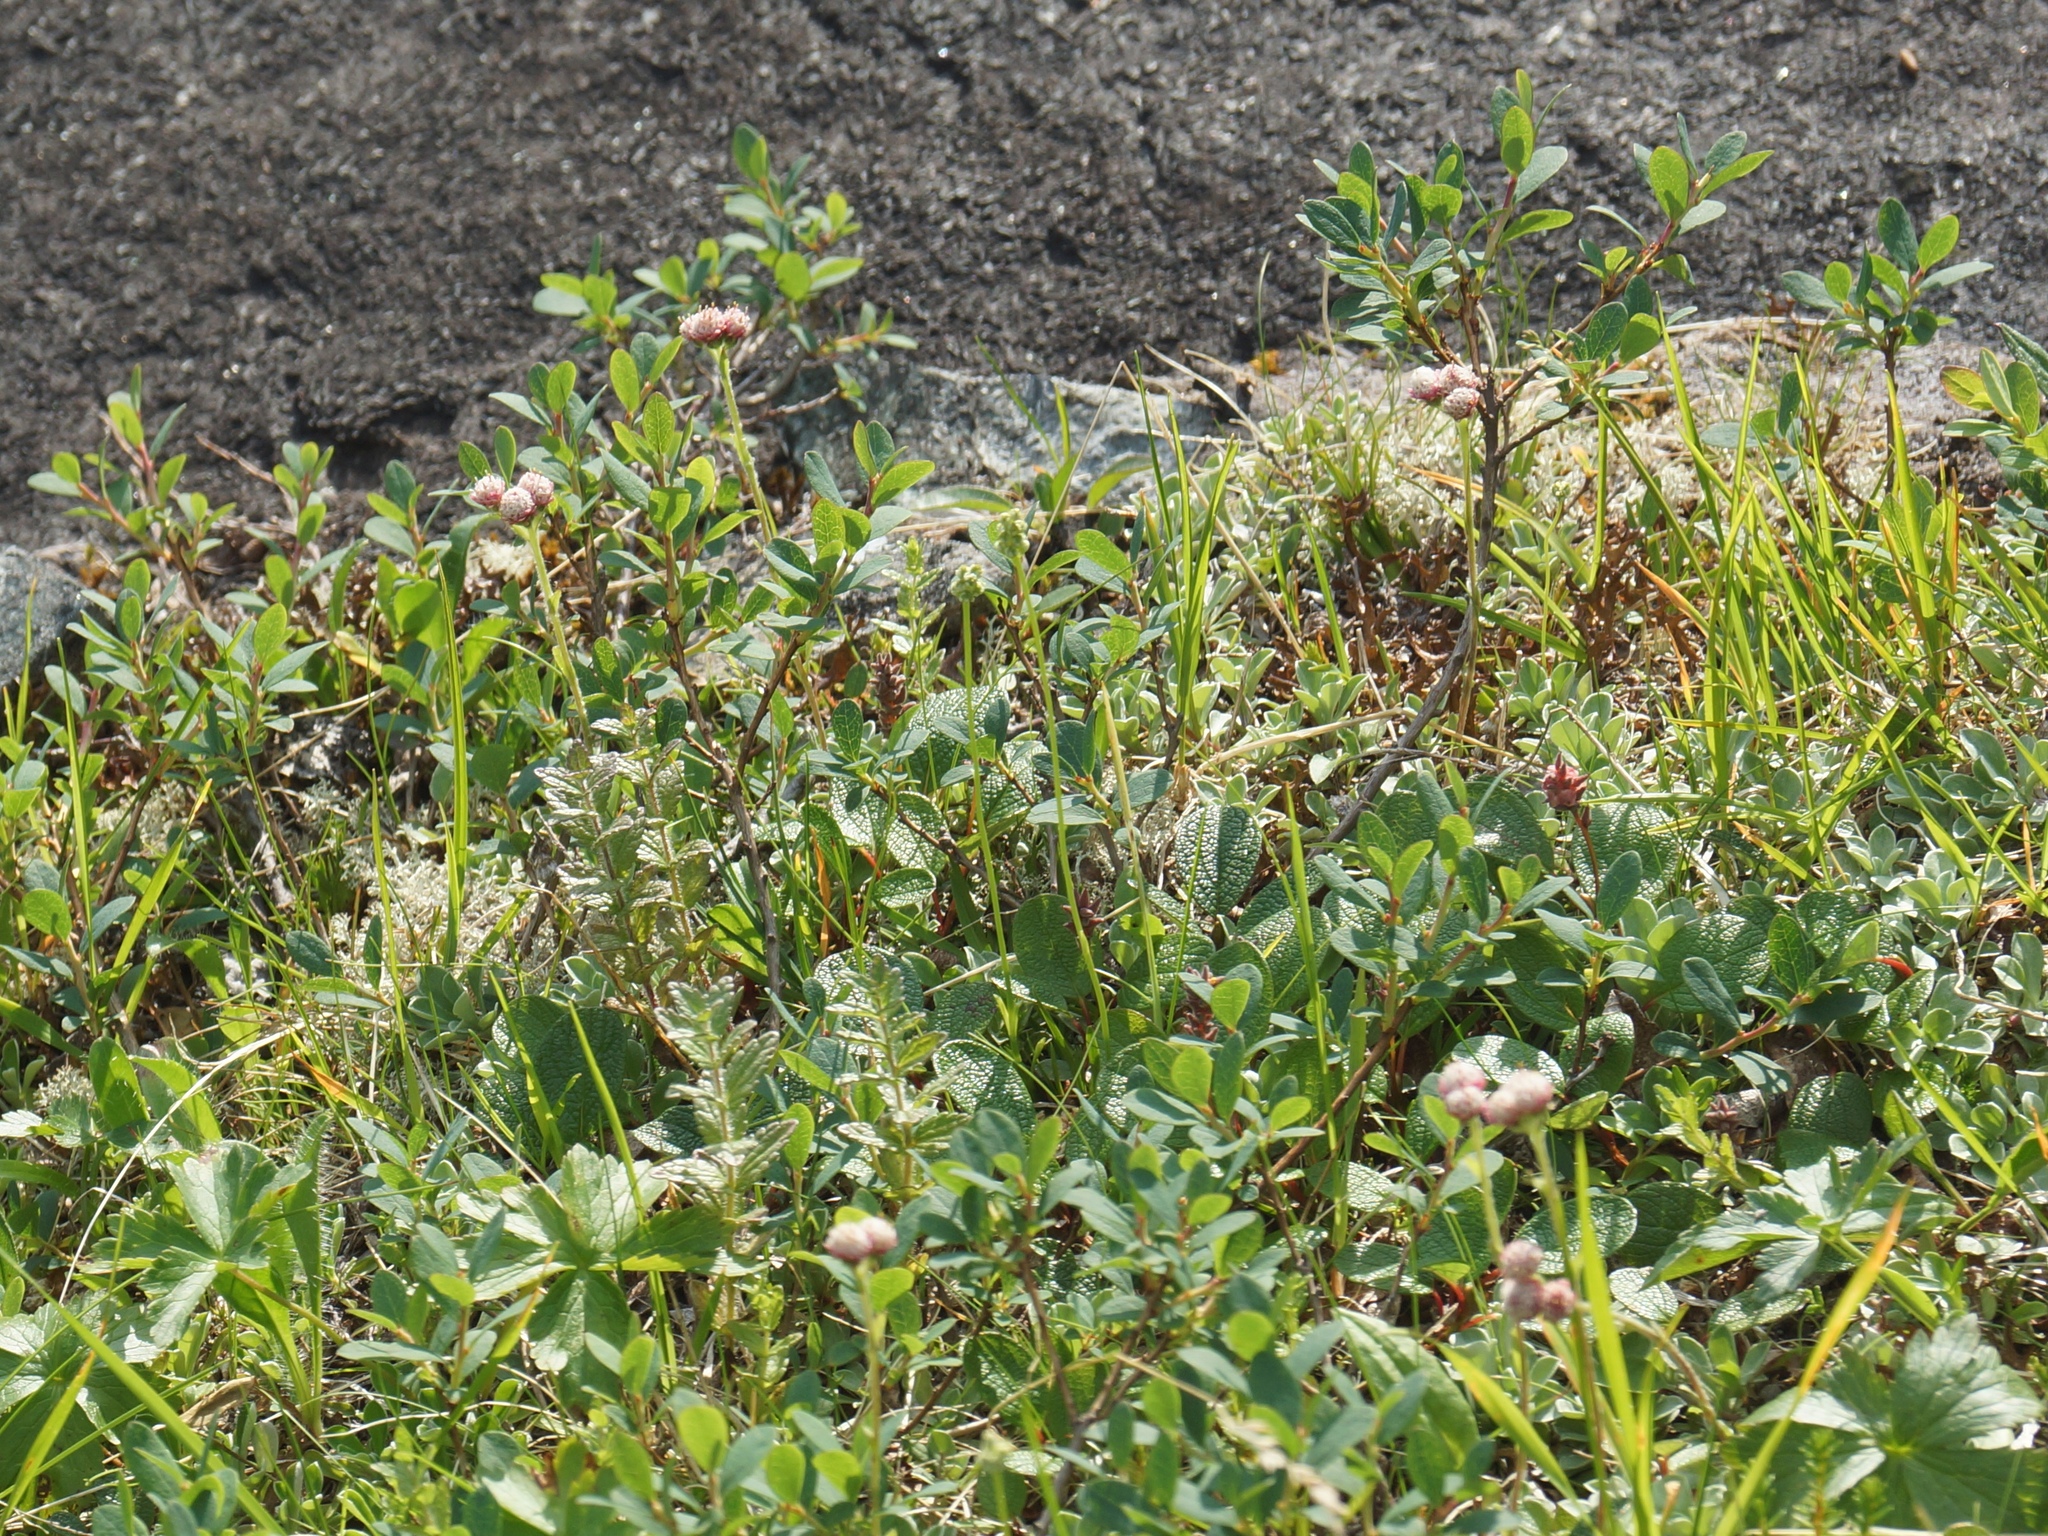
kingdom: Plantae
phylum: Tracheophyta
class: Magnoliopsida
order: Malpighiales
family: Salicaceae
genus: Salix
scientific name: Salix reticulata
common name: Net-leaved willow
